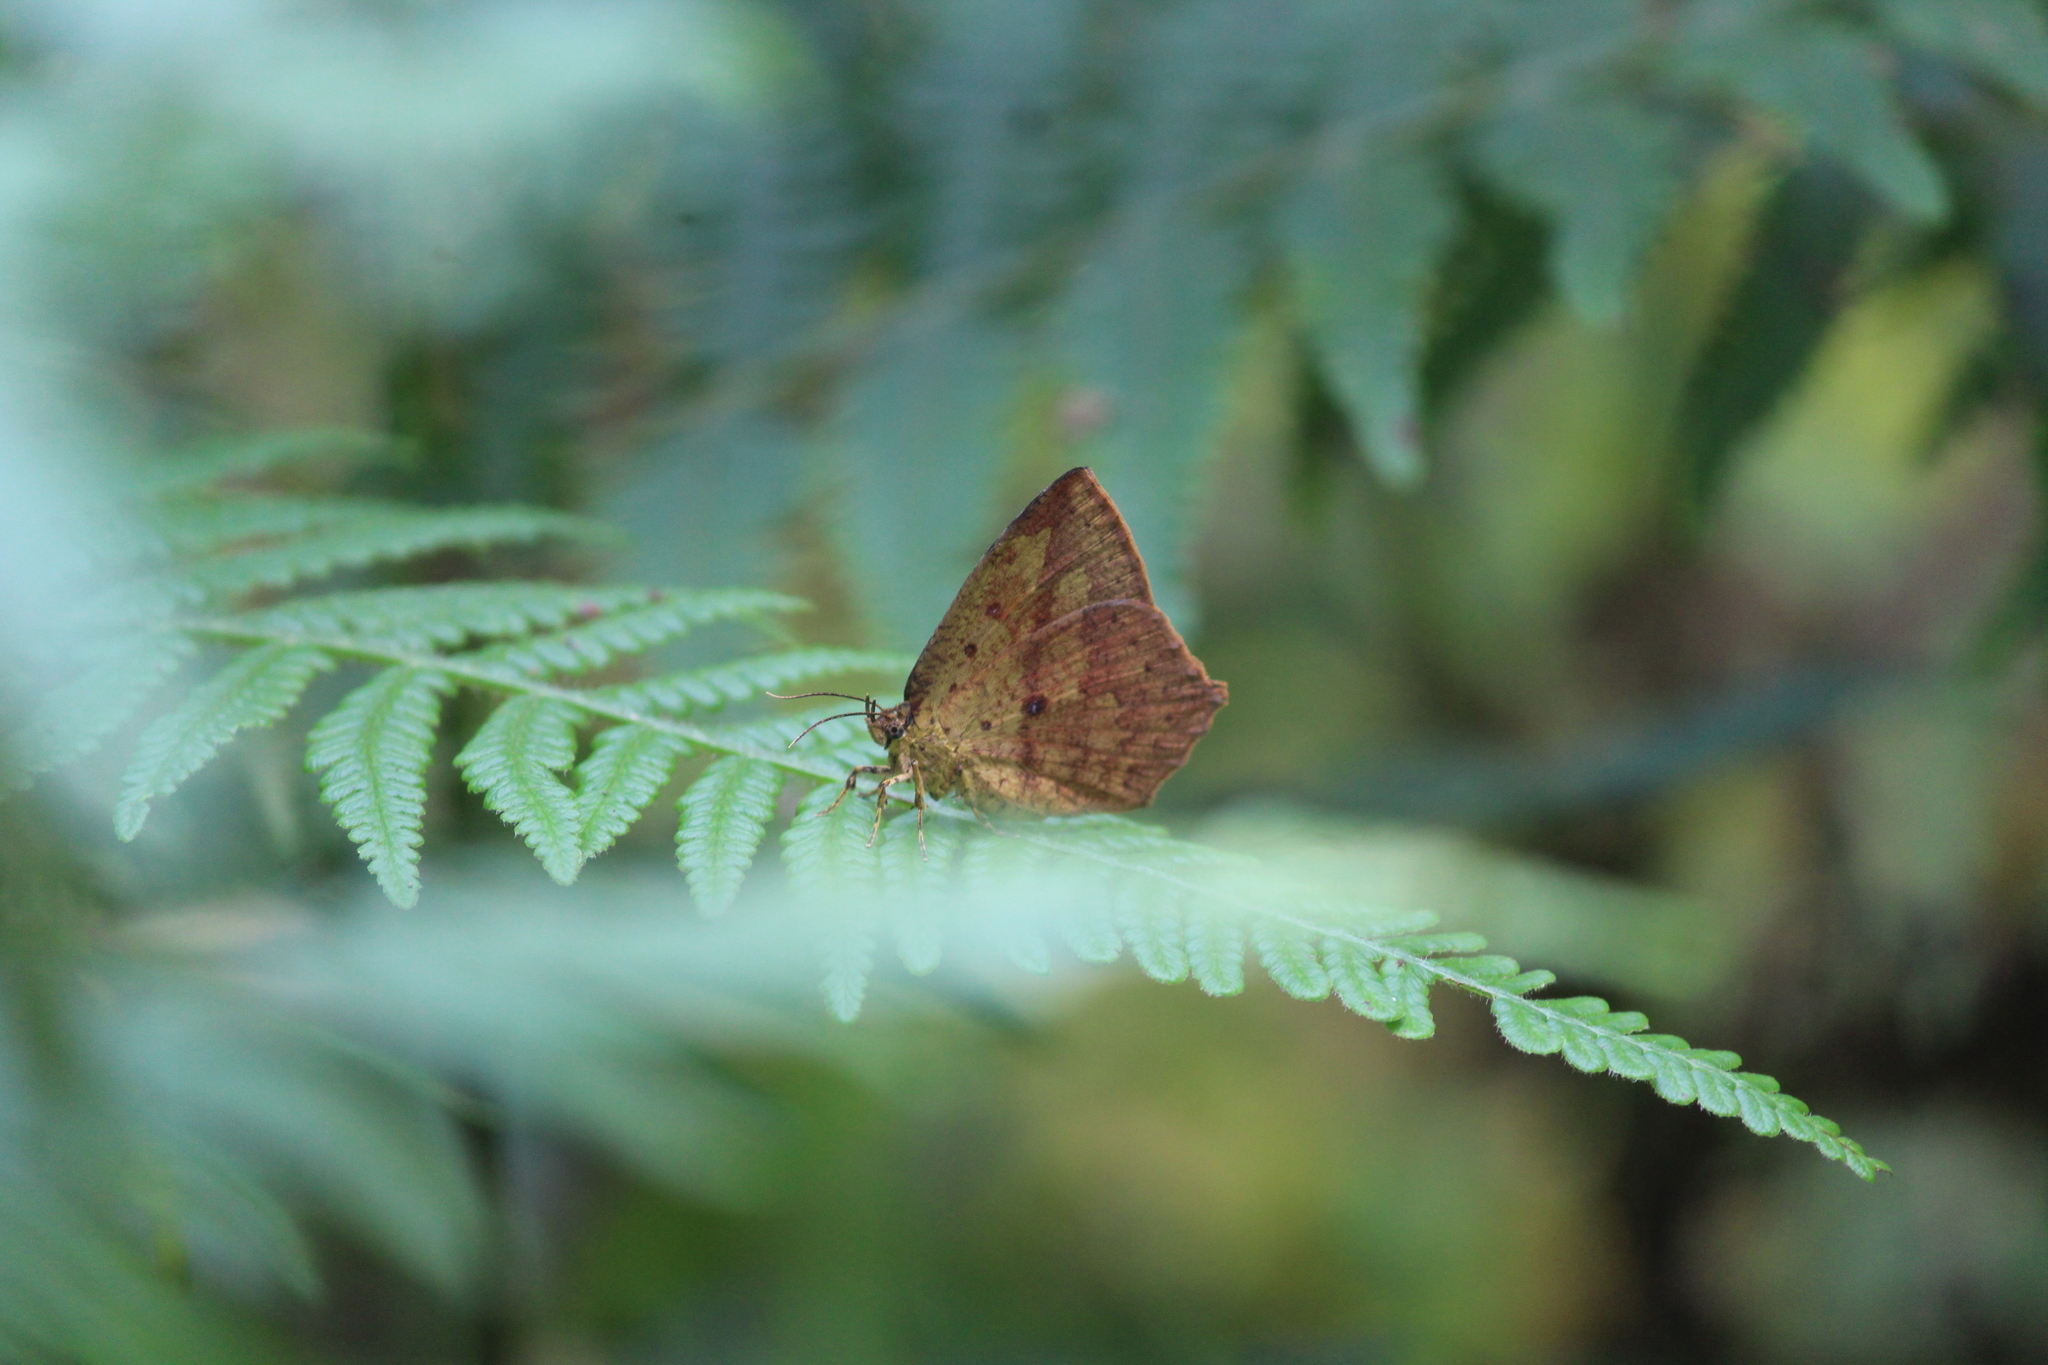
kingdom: Animalia
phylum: Arthropoda
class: Insecta
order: Lepidoptera
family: Callidulidae
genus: Tetragonus
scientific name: Tetragonus catamitus
